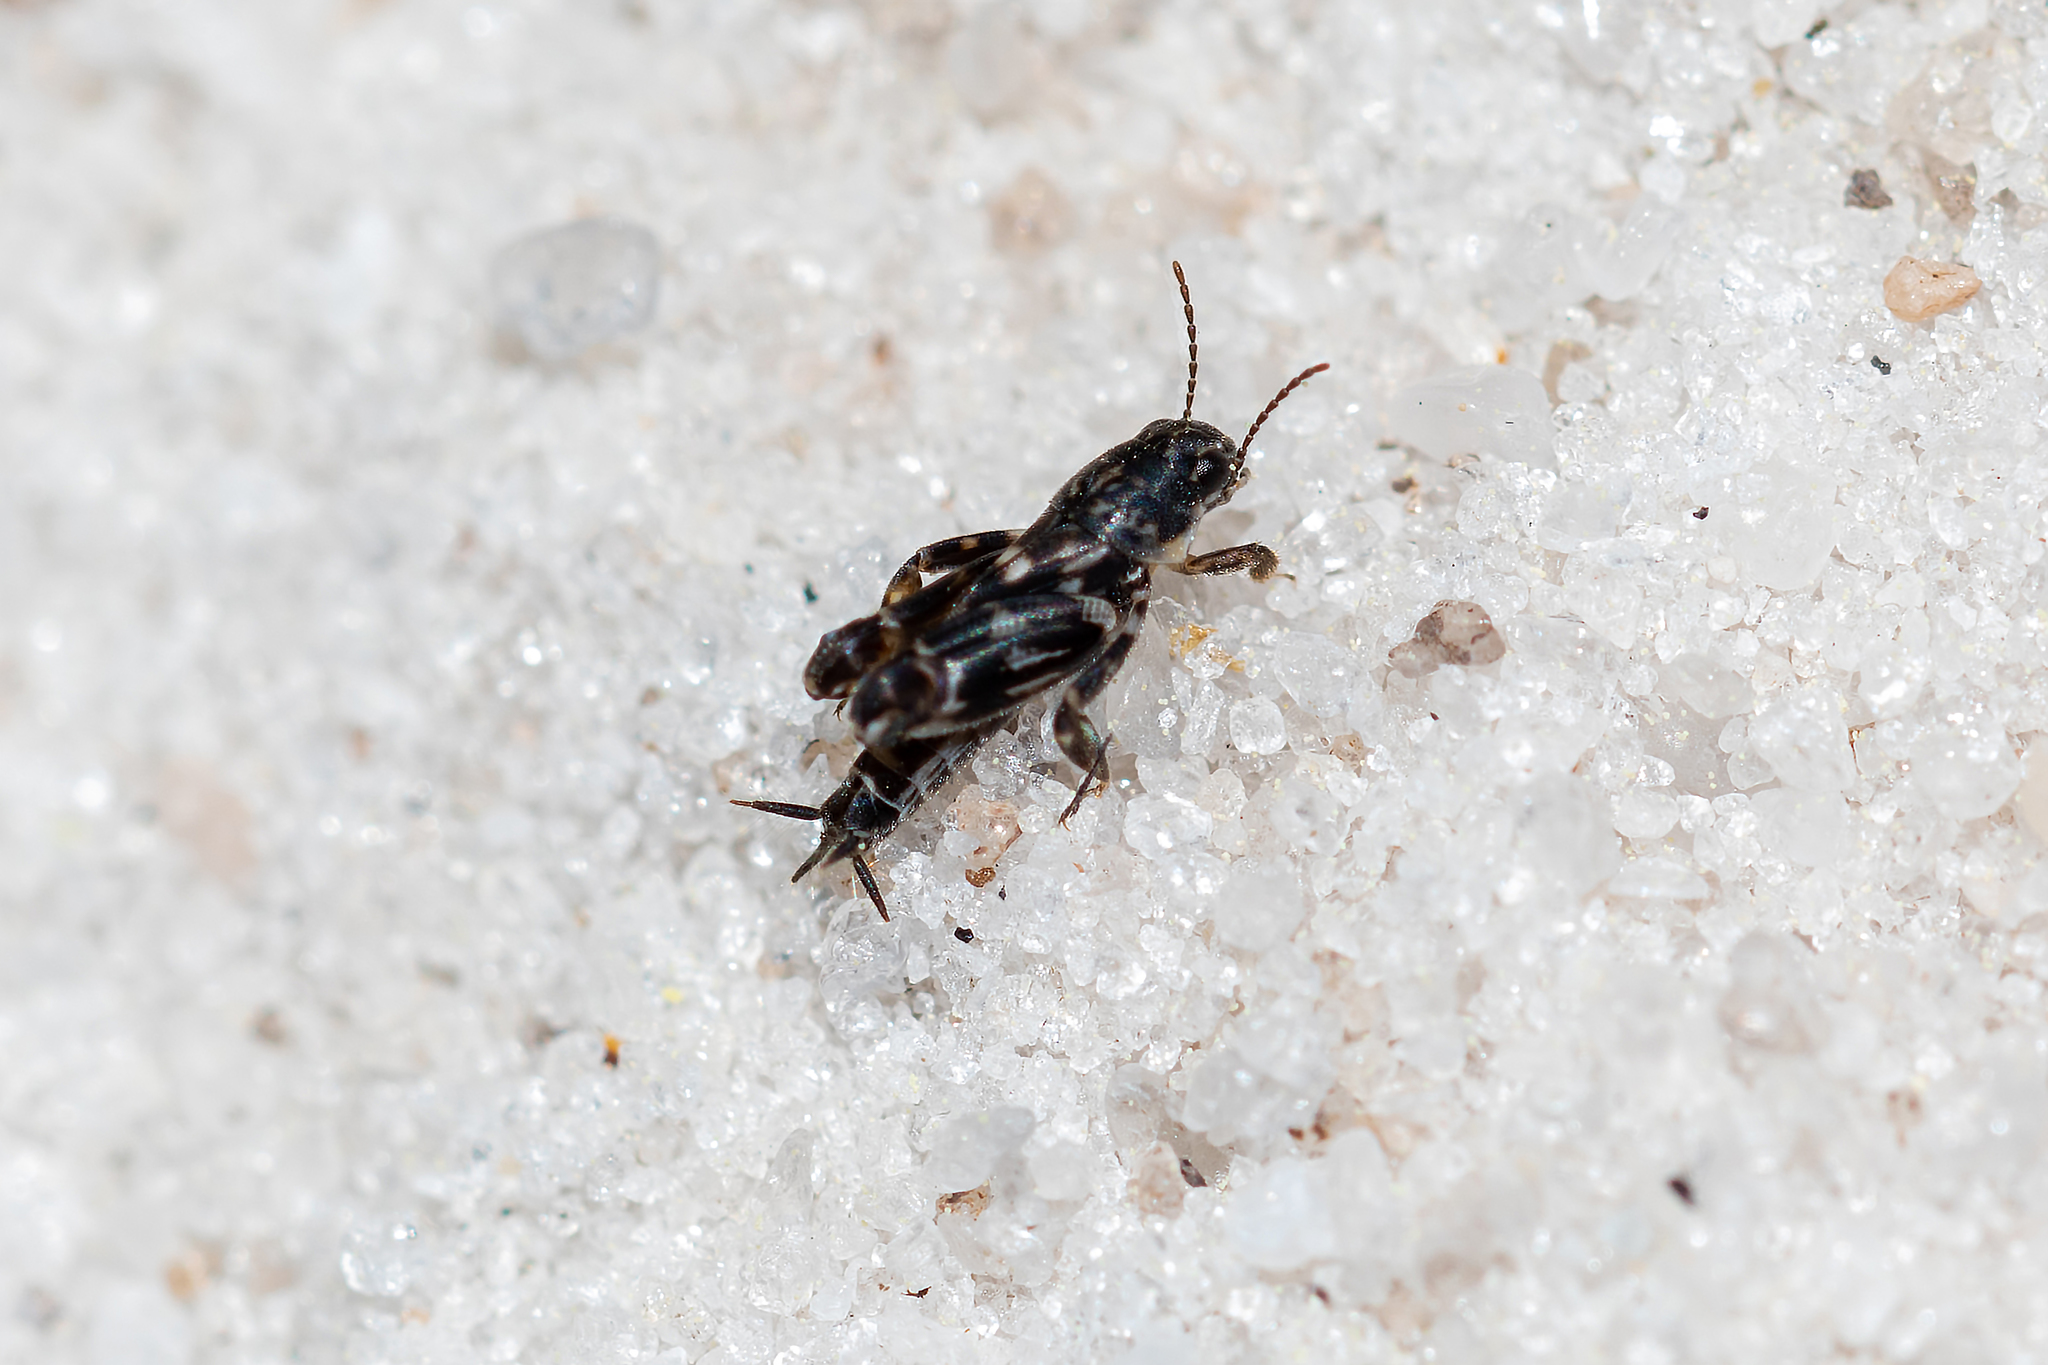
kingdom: Animalia
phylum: Arthropoda
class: Insecta
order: Orthoptera
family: Tridactylidae
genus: Ellipes
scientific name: Ellipes minuta
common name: Minute pygmy locust
